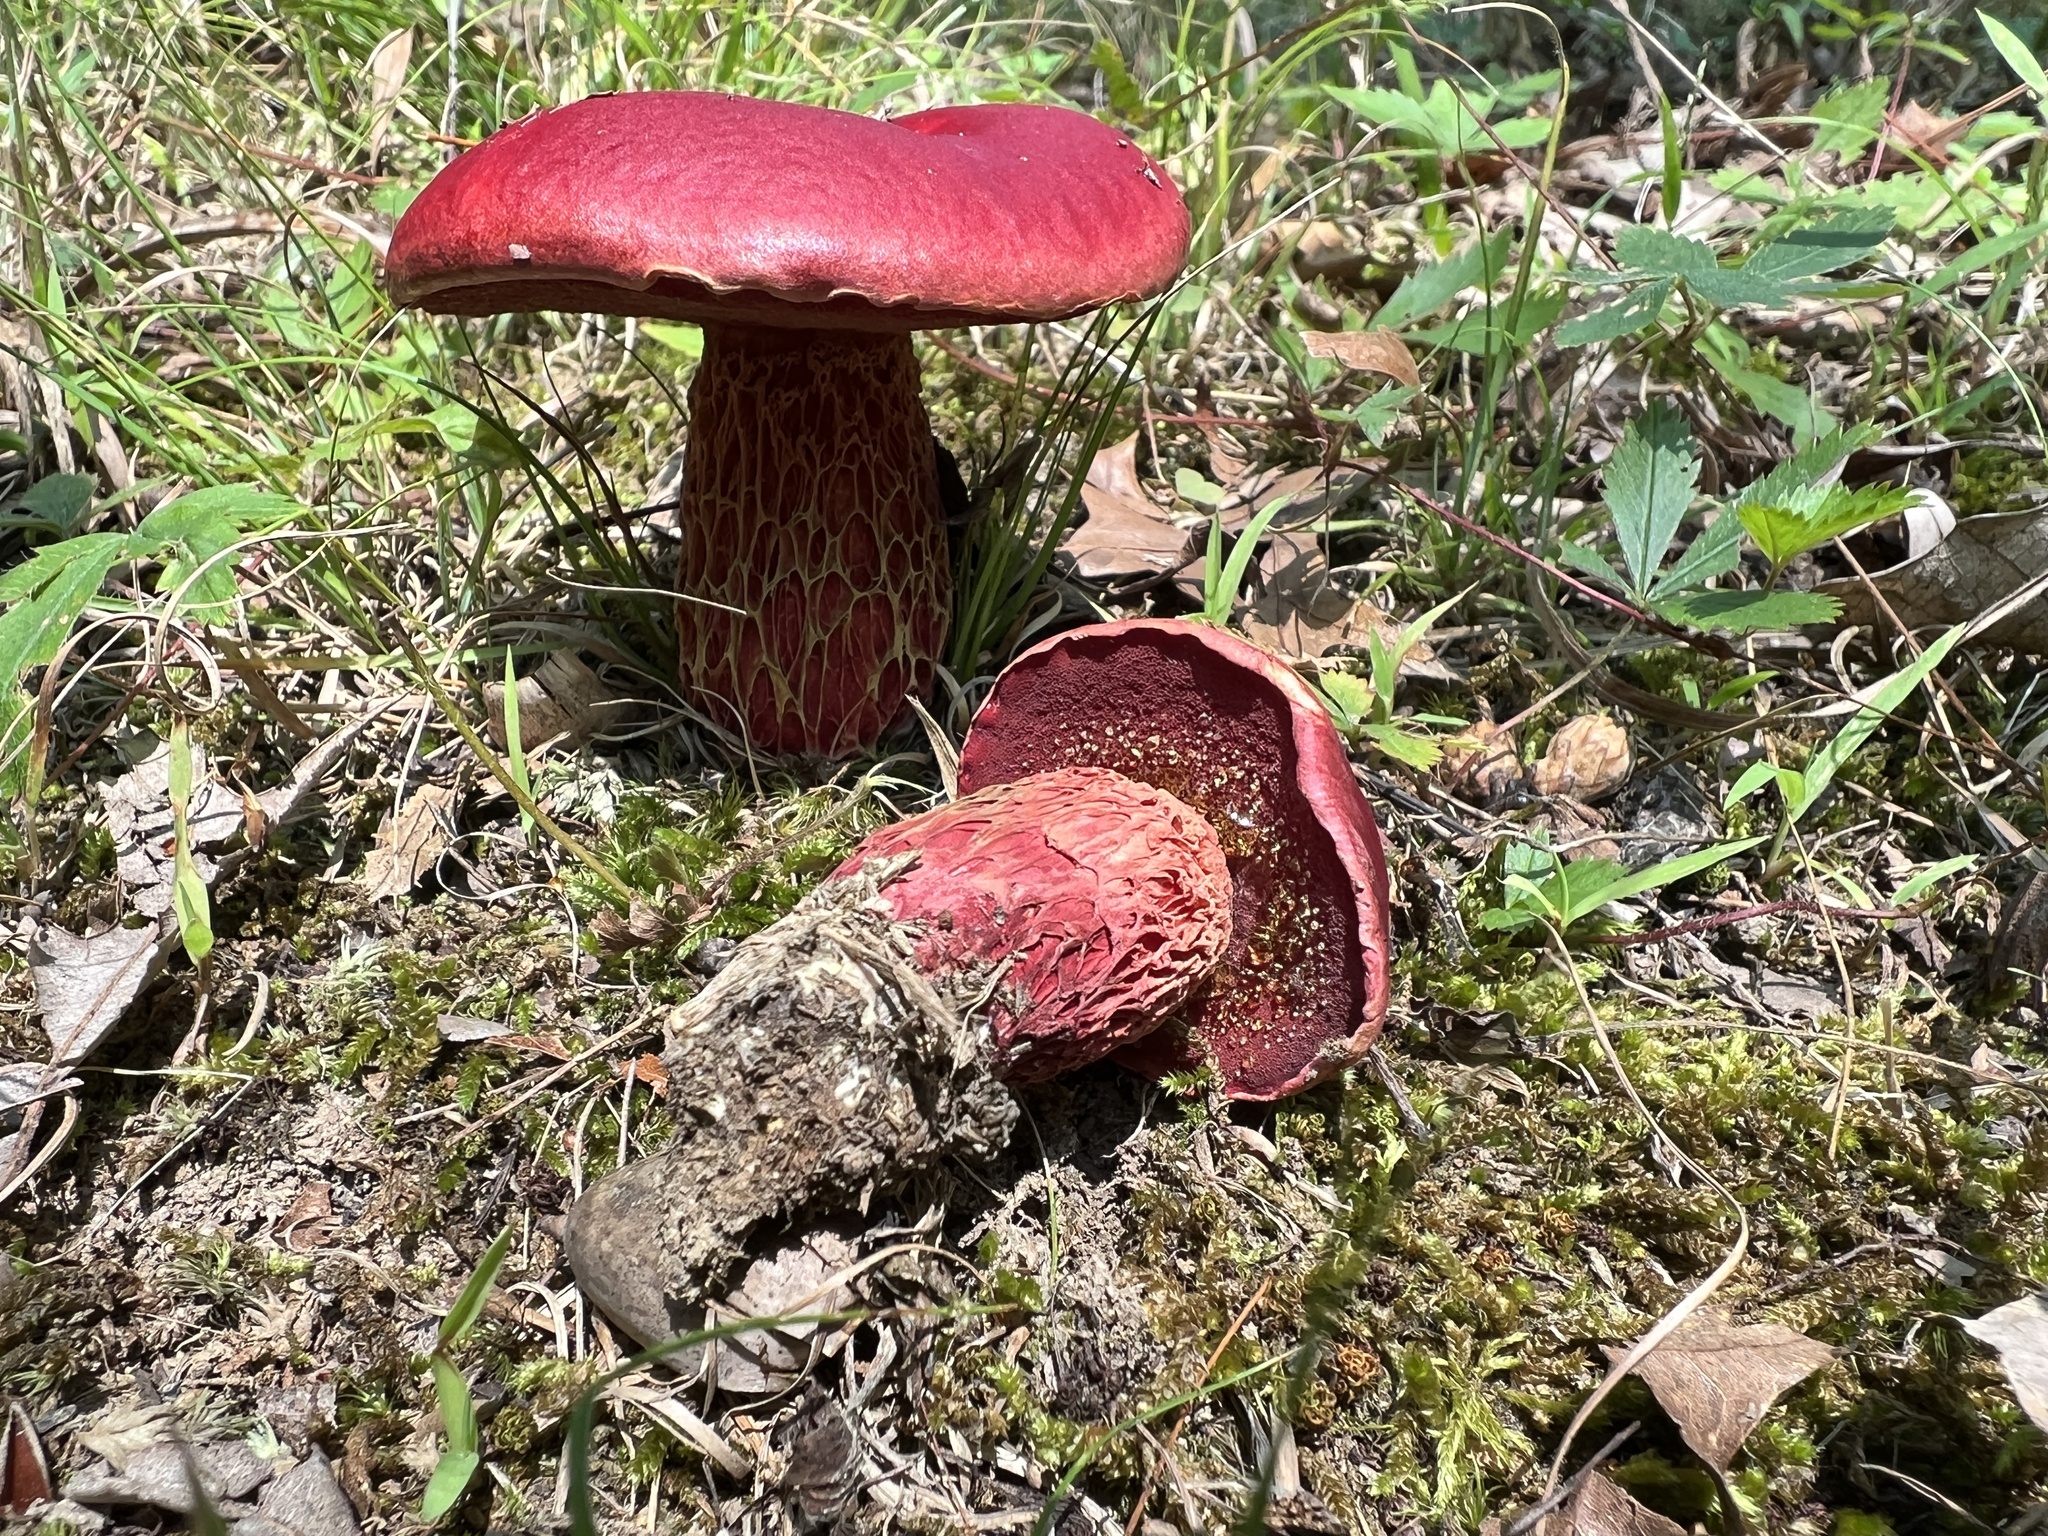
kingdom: Fungi
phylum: Basidiomycota
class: Agaricomycetes
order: Boletales
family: Boletaceae
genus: Butyriboletus
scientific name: Butyriboletus frostii
